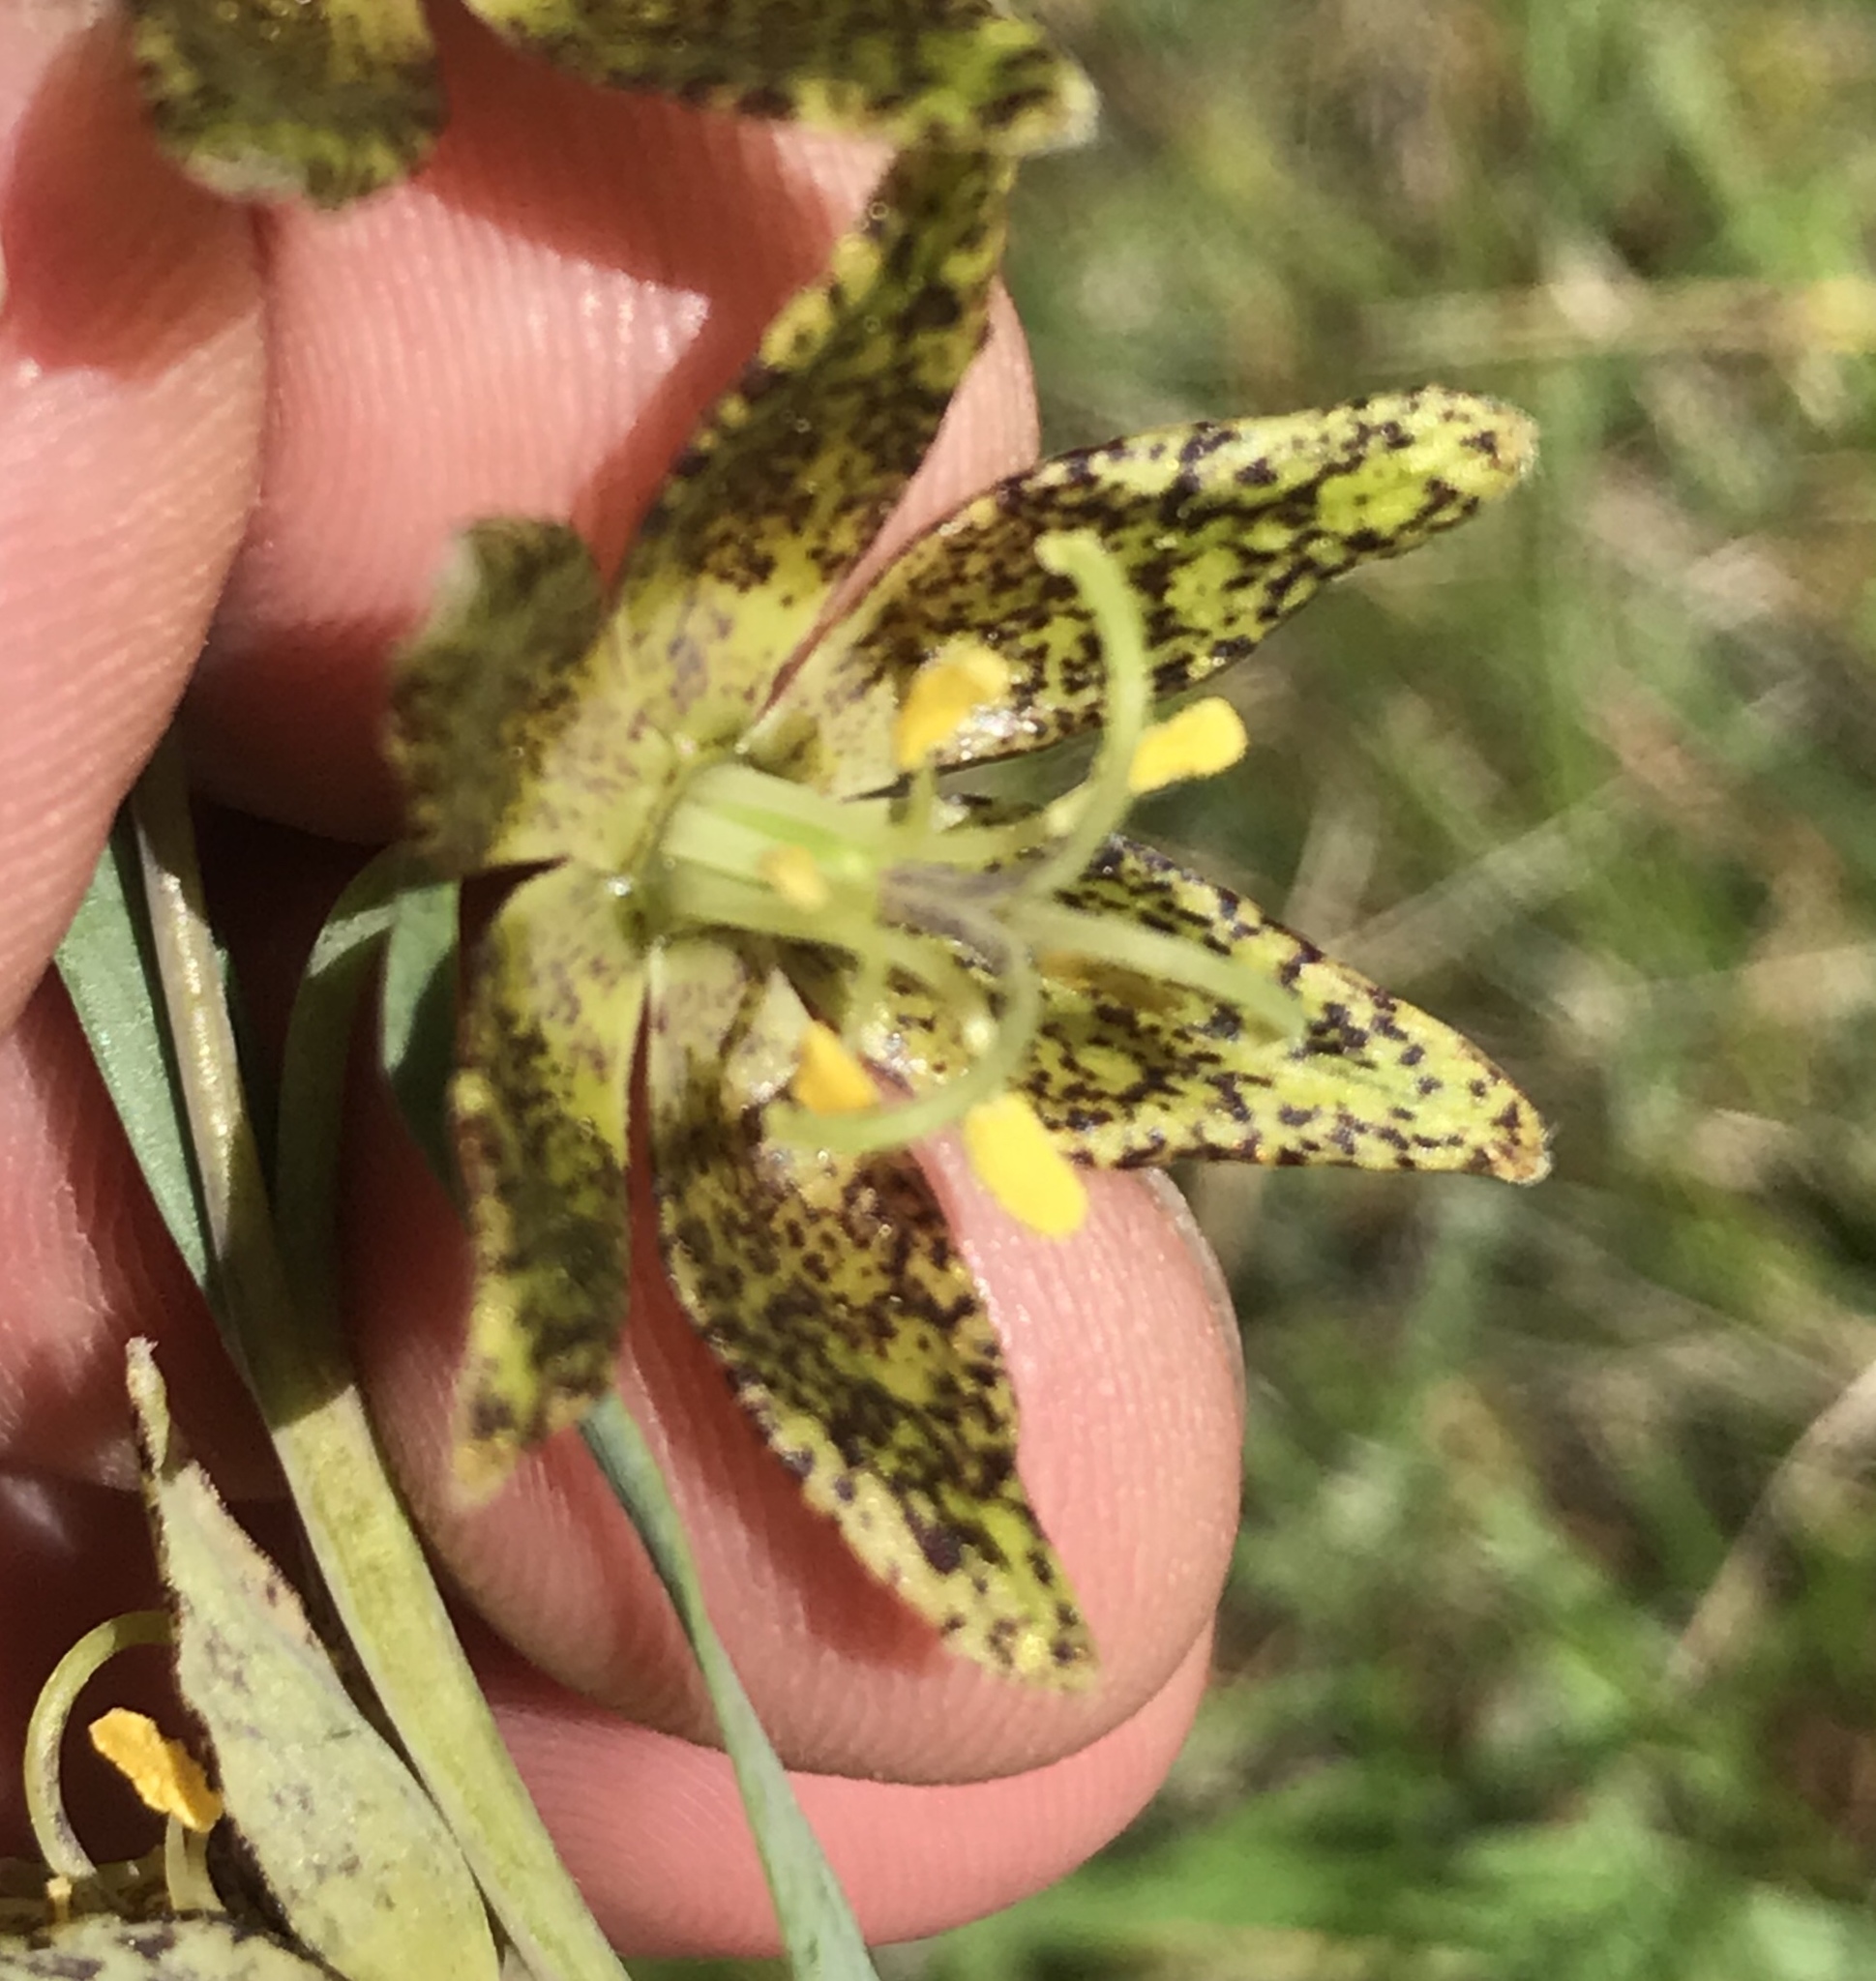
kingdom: Plantae
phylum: Tracheophyta
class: Liliopsida
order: Liliales
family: Liliaceae
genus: Fritillaria
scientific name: Fritillaria atropurpurea
